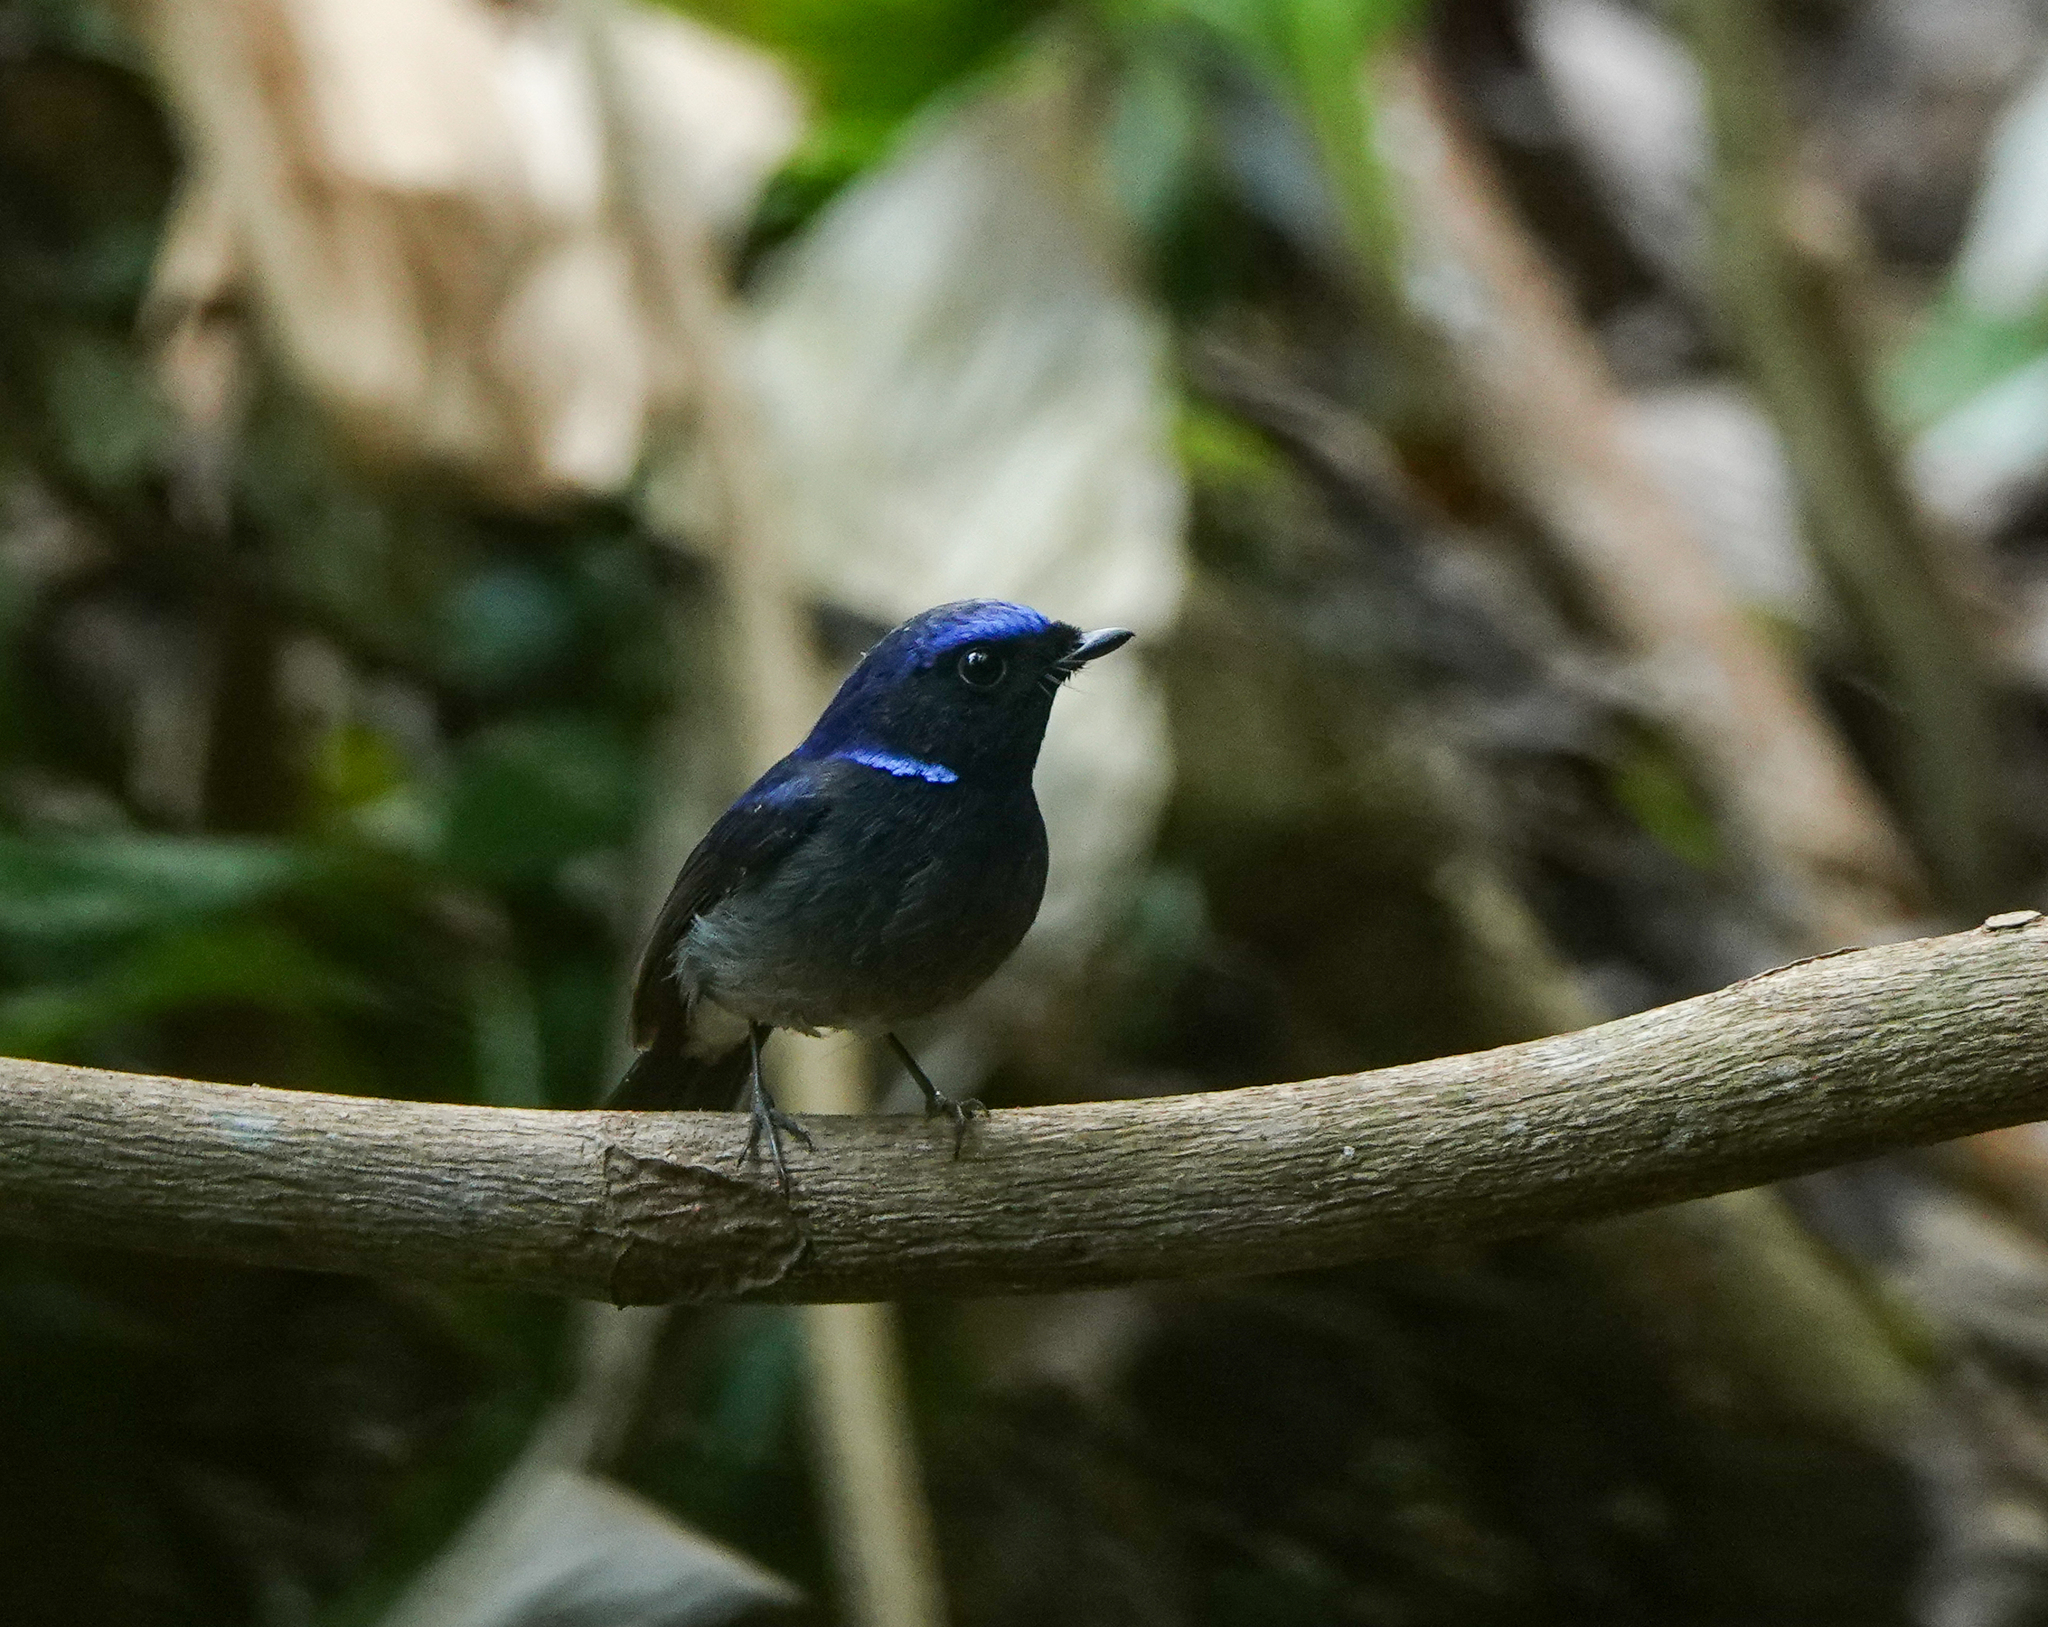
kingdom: Animalia
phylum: Chordata
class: Aves
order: Passeriformes
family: Muscicapidae
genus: Niltava
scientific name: Niltava macgrigoriae
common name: Small niltava
